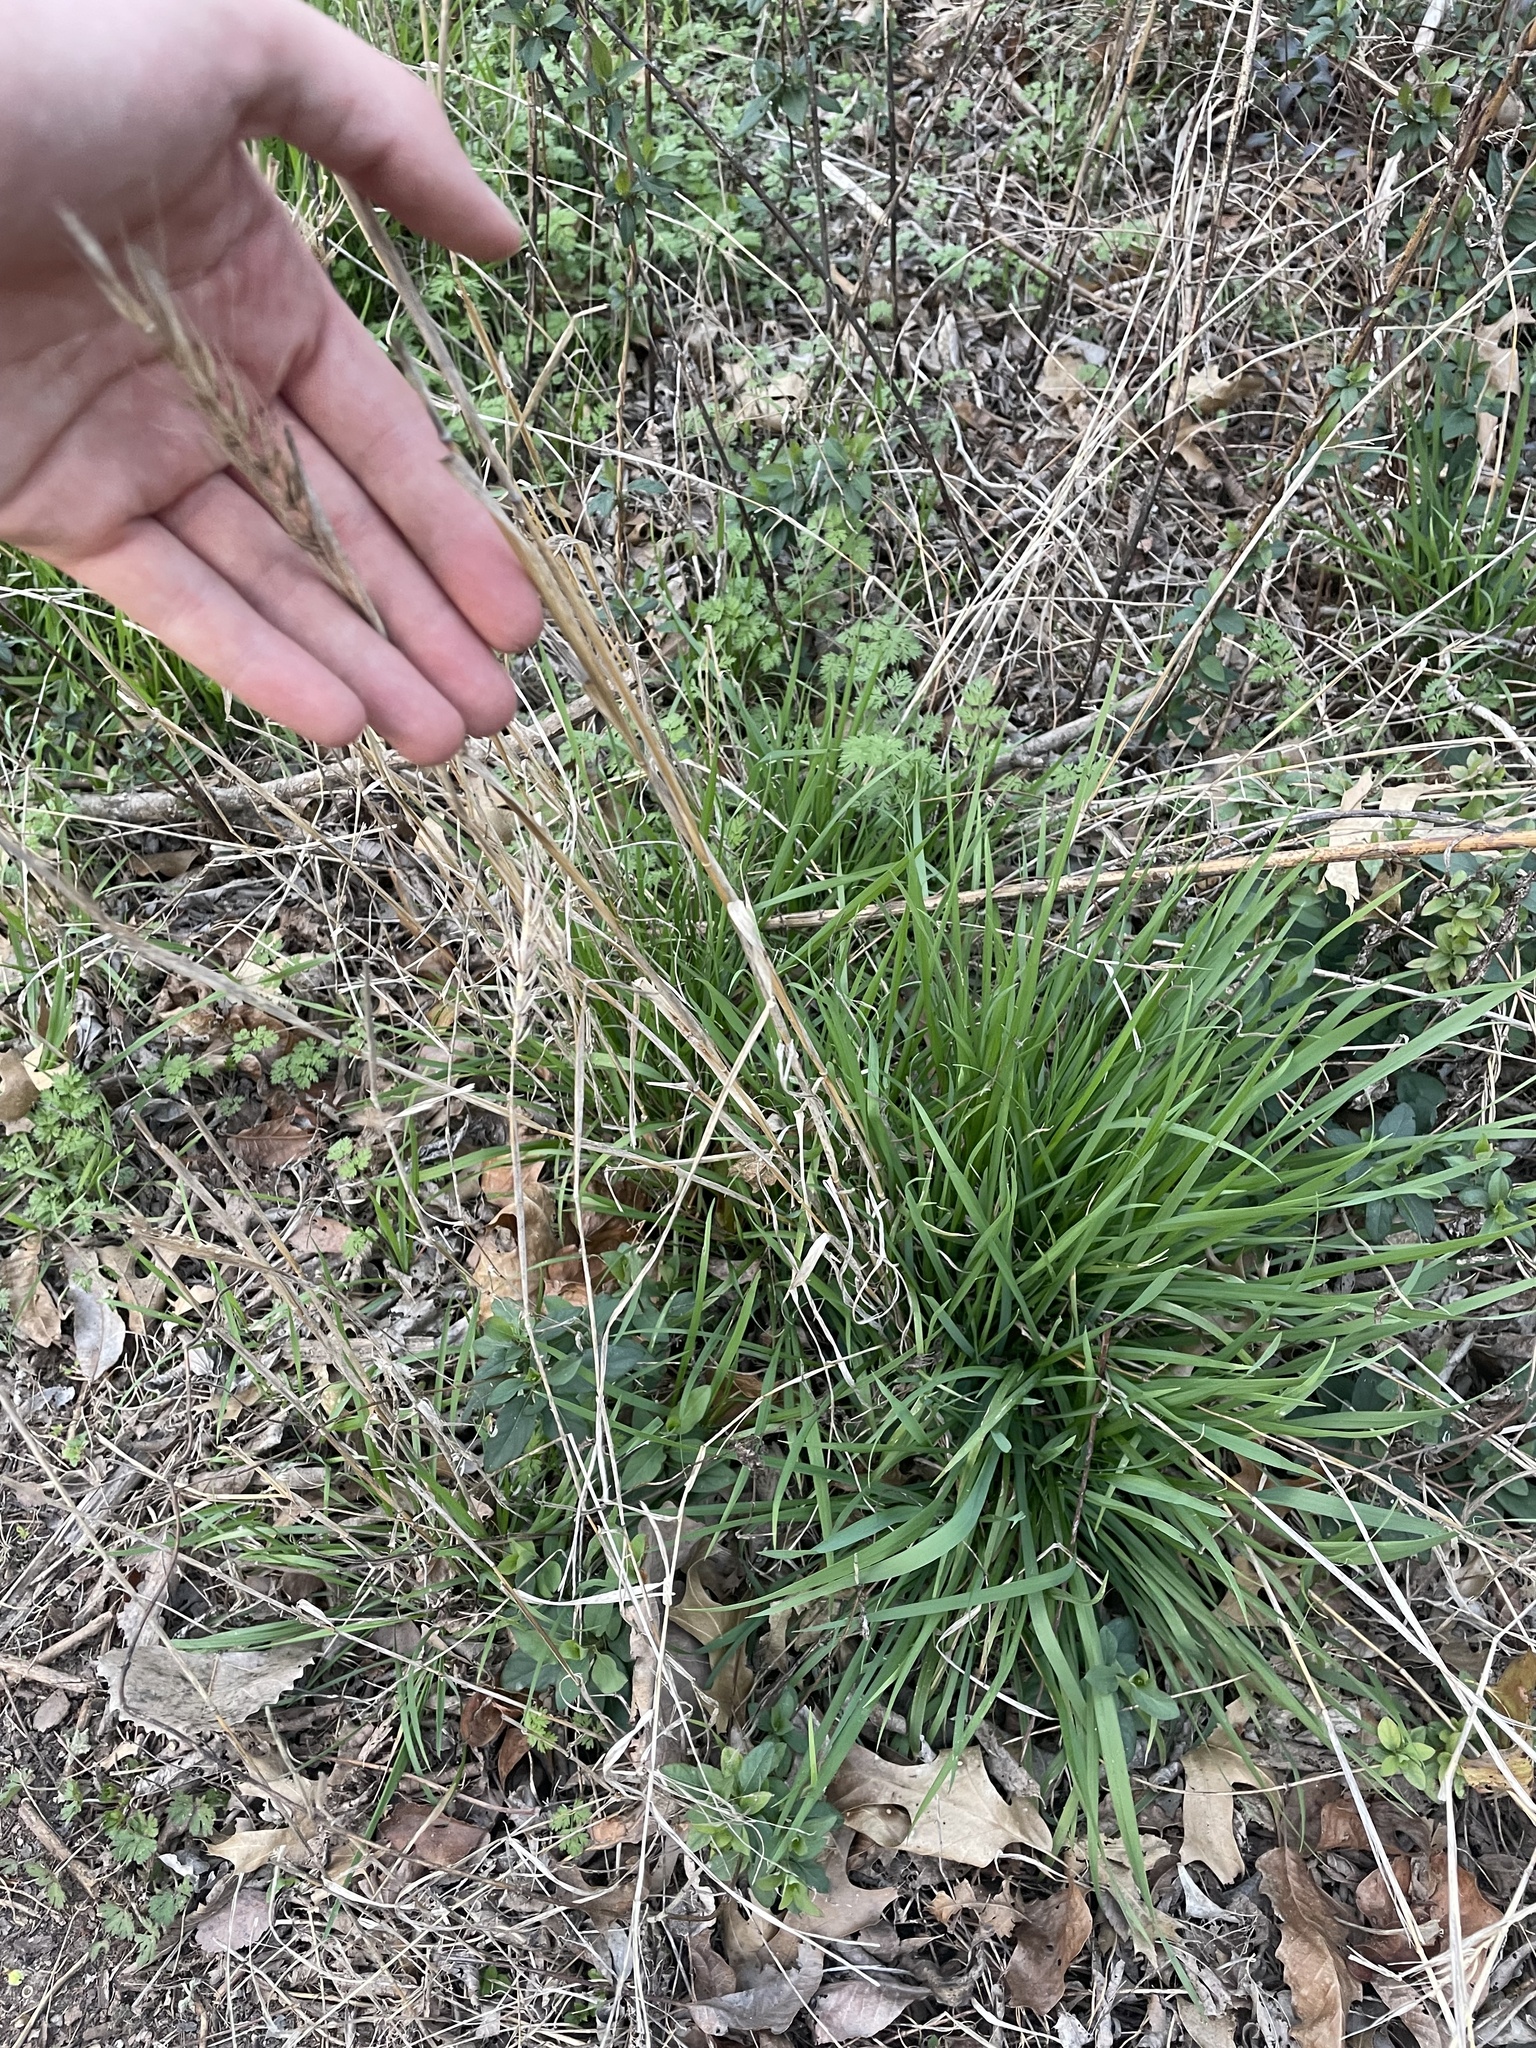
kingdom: Plantae
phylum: Tracheophyta
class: Liliopsida
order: Poales
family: Poaceae
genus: Elymus
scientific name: Elymus virginicus
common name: Common eastern wildrye
